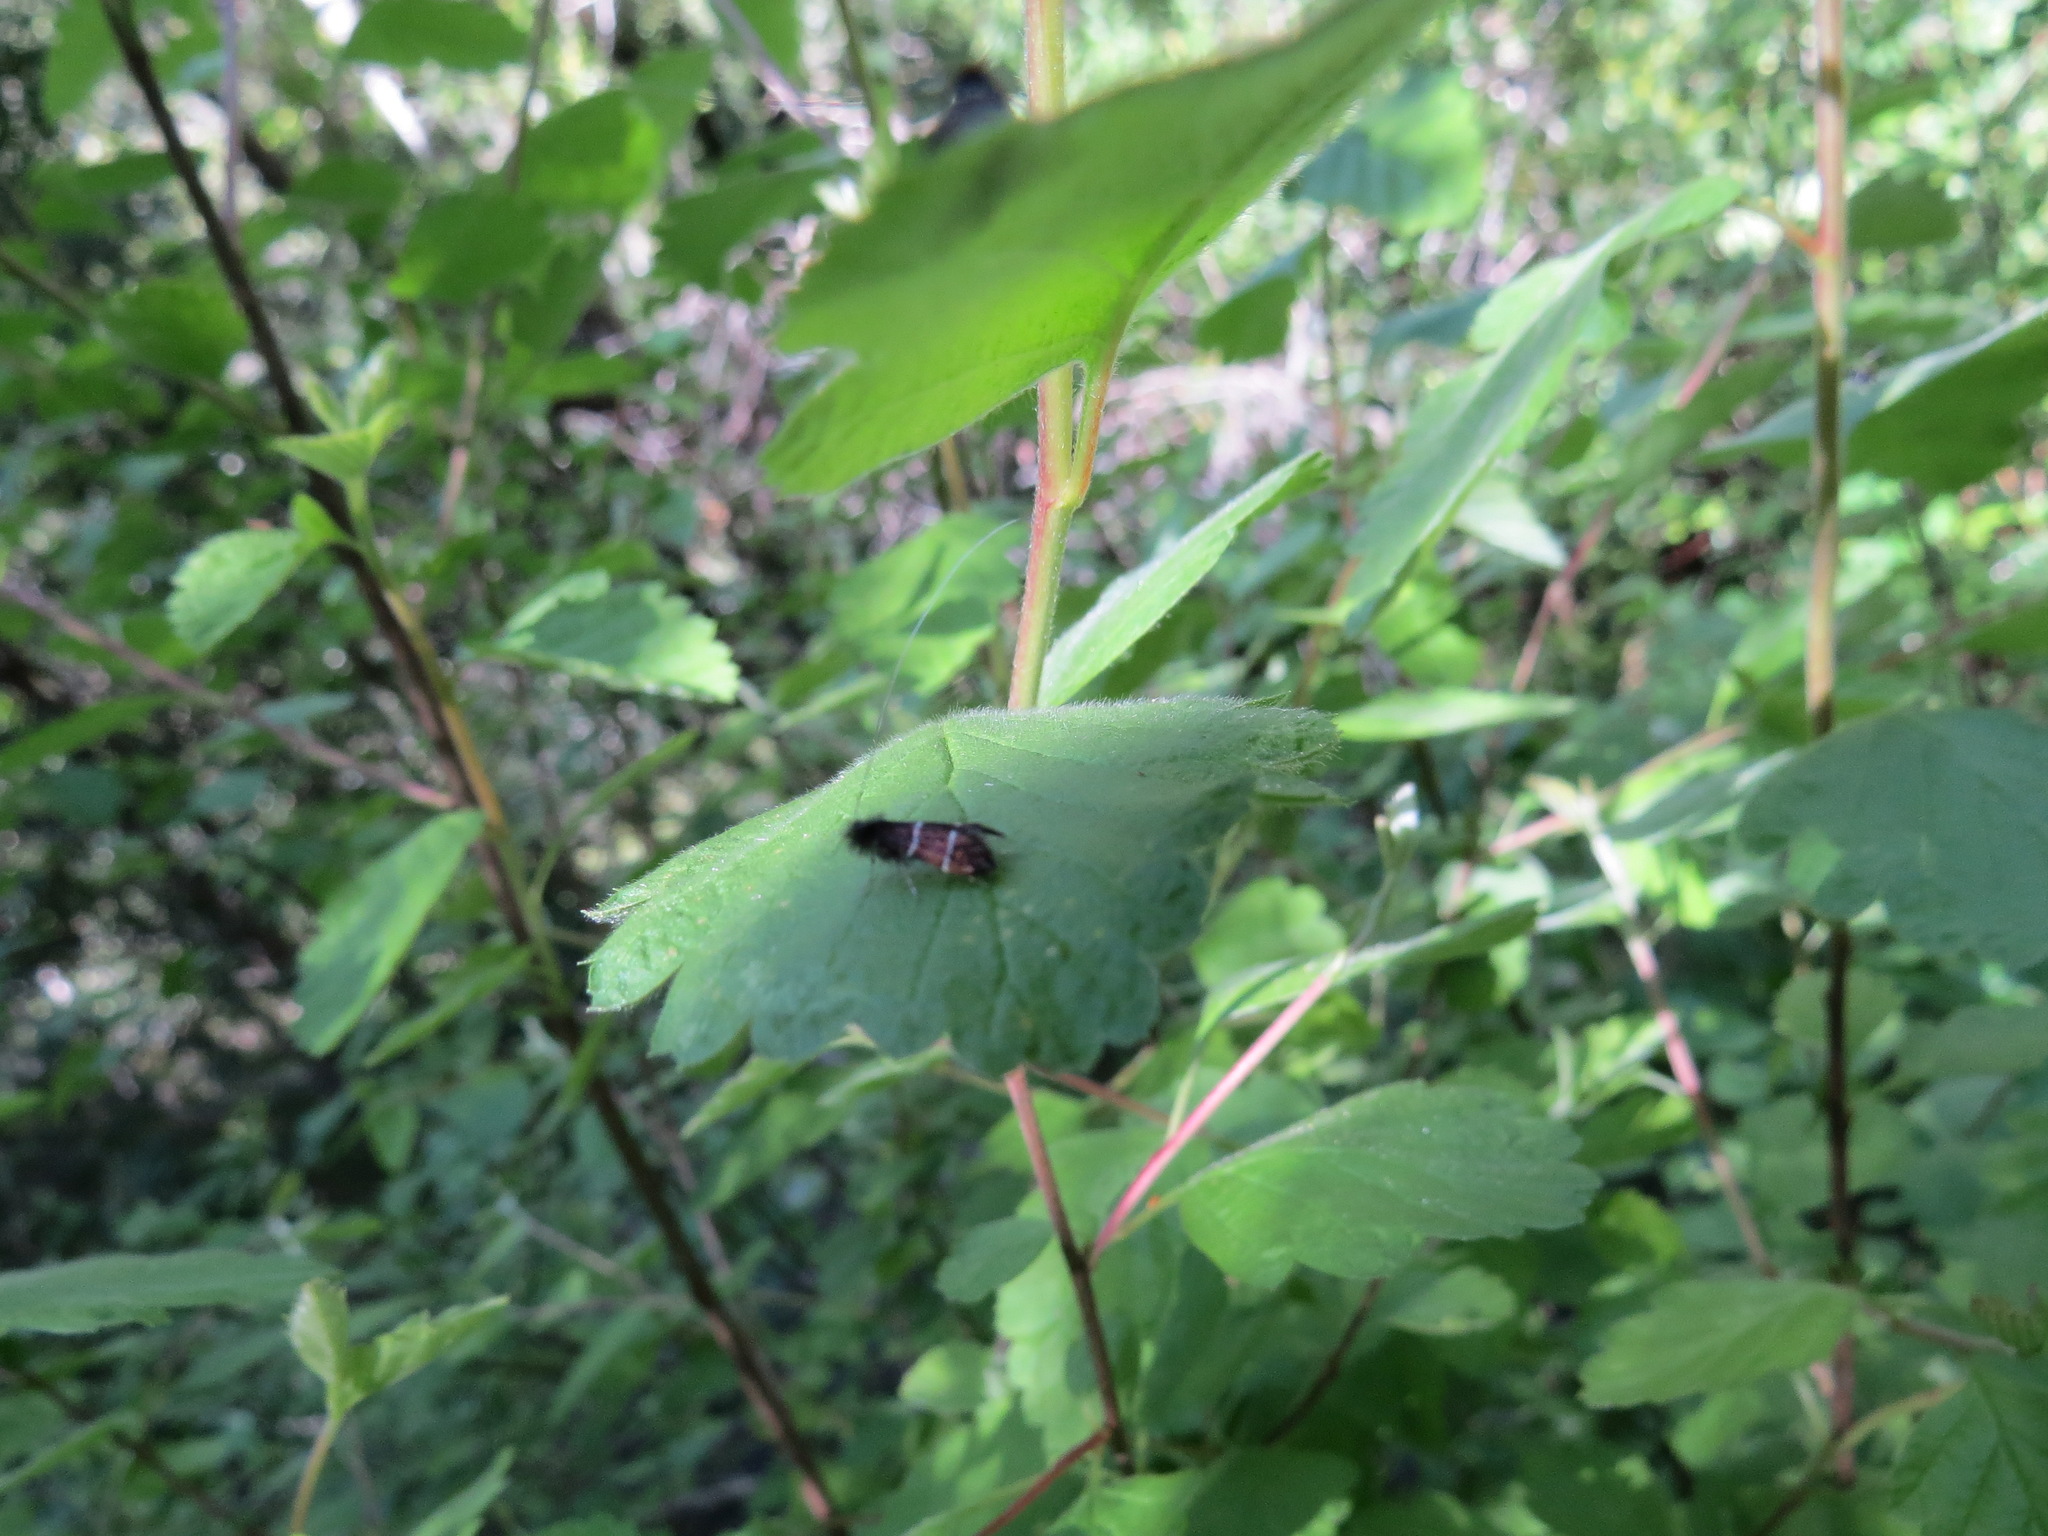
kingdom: Animalia
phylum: Arthropoda
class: Insecta
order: Lepidoptera
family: Adelidae
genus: Adela
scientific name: Adela septentrionella
